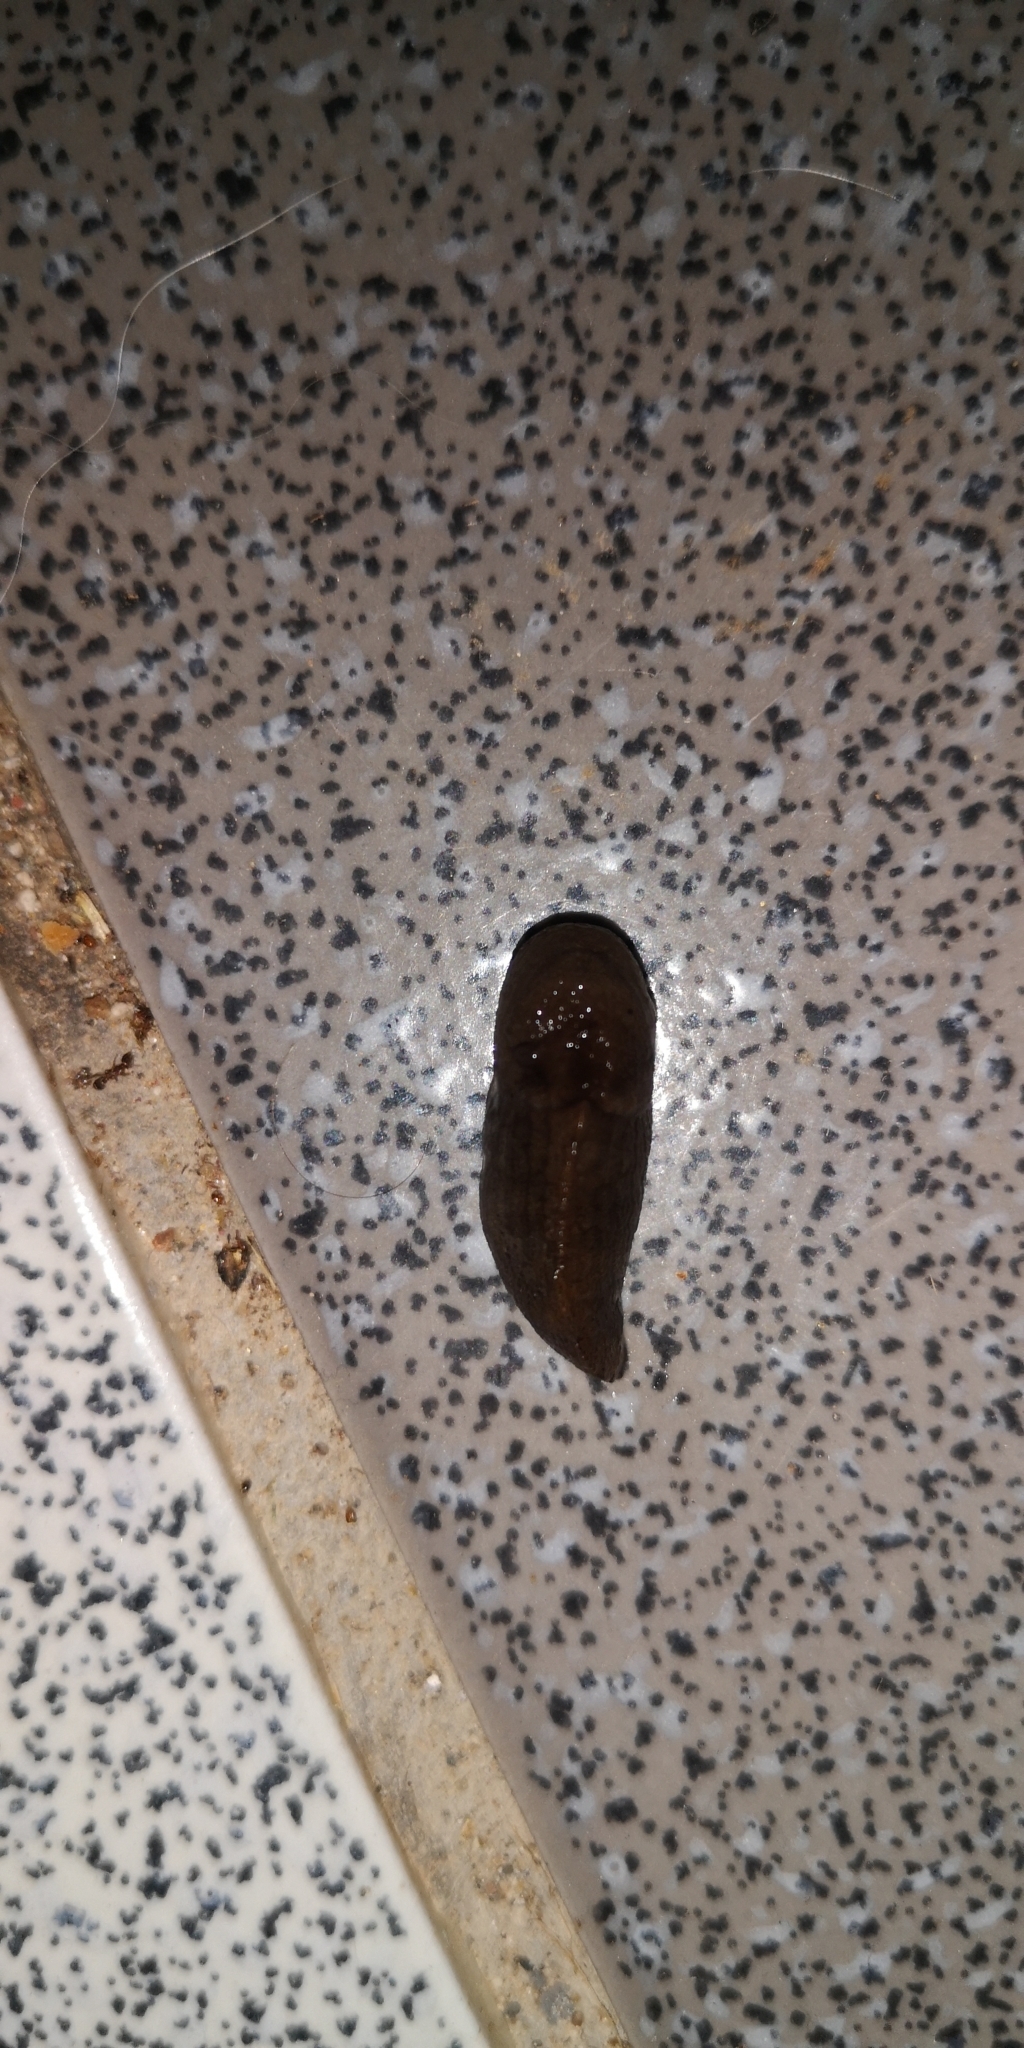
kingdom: Animalia
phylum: Mollusca
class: Gastropoda
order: Stylommatophora
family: Milacidae
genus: Milax
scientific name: Milax gagates
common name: Greenhouse slug
